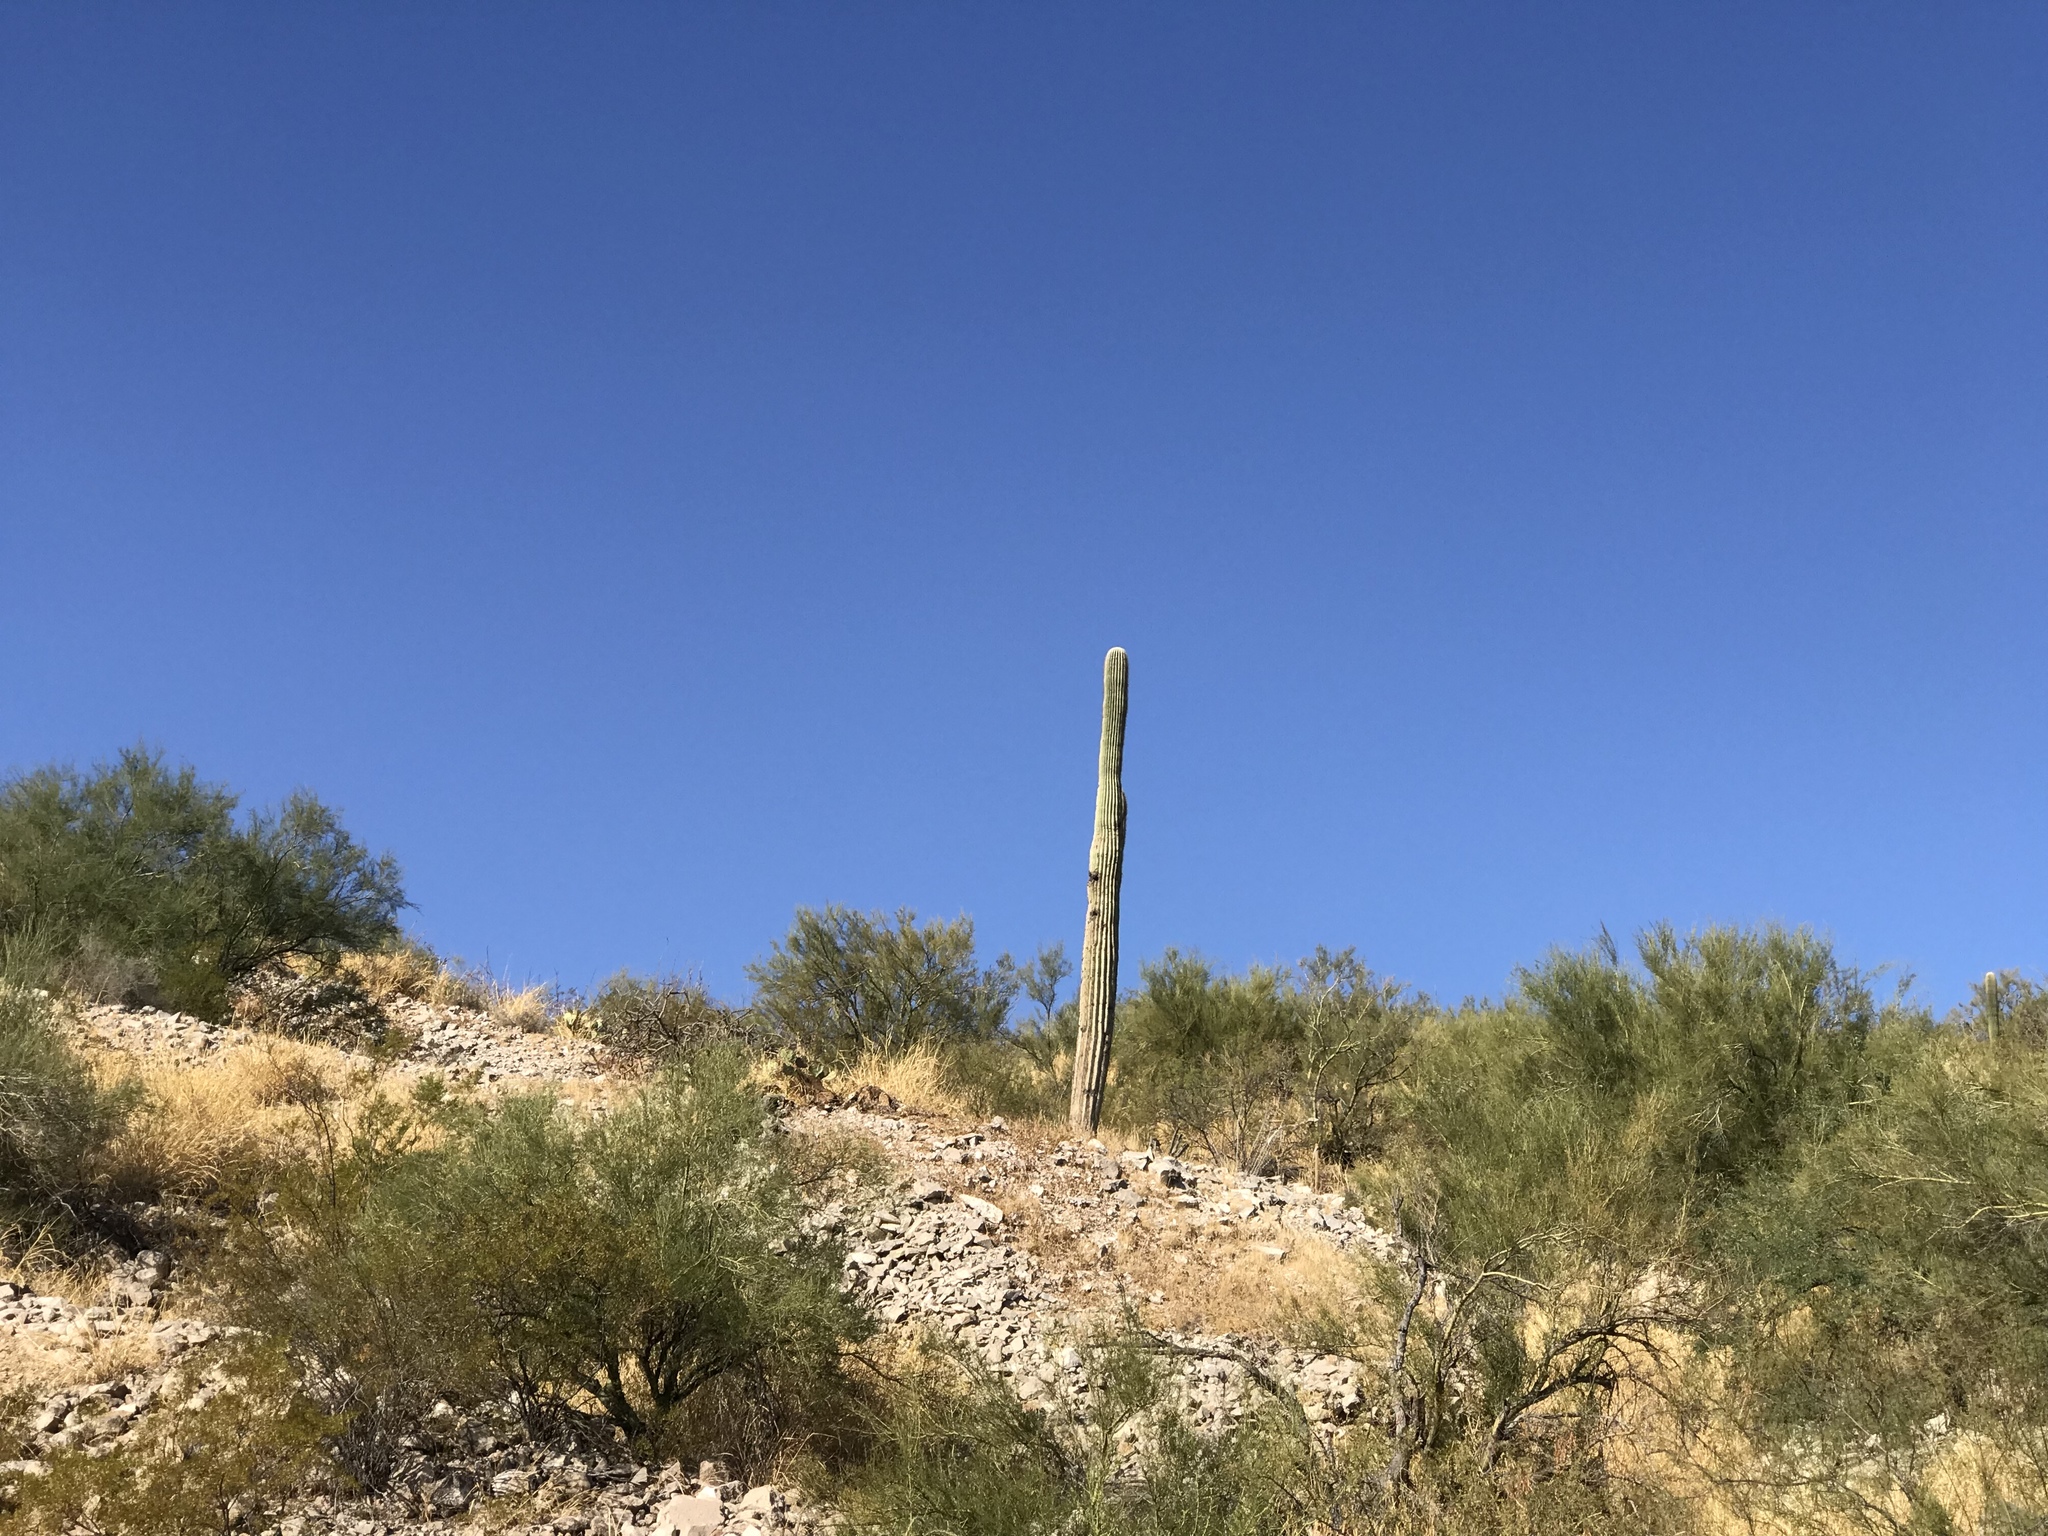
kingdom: Plantae
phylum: Tracheophyta
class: Magnoliopsida
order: Caryophyllales
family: Cactaceae
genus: Carnegiea
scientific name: Carnegiea gigantea
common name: Saguaro
